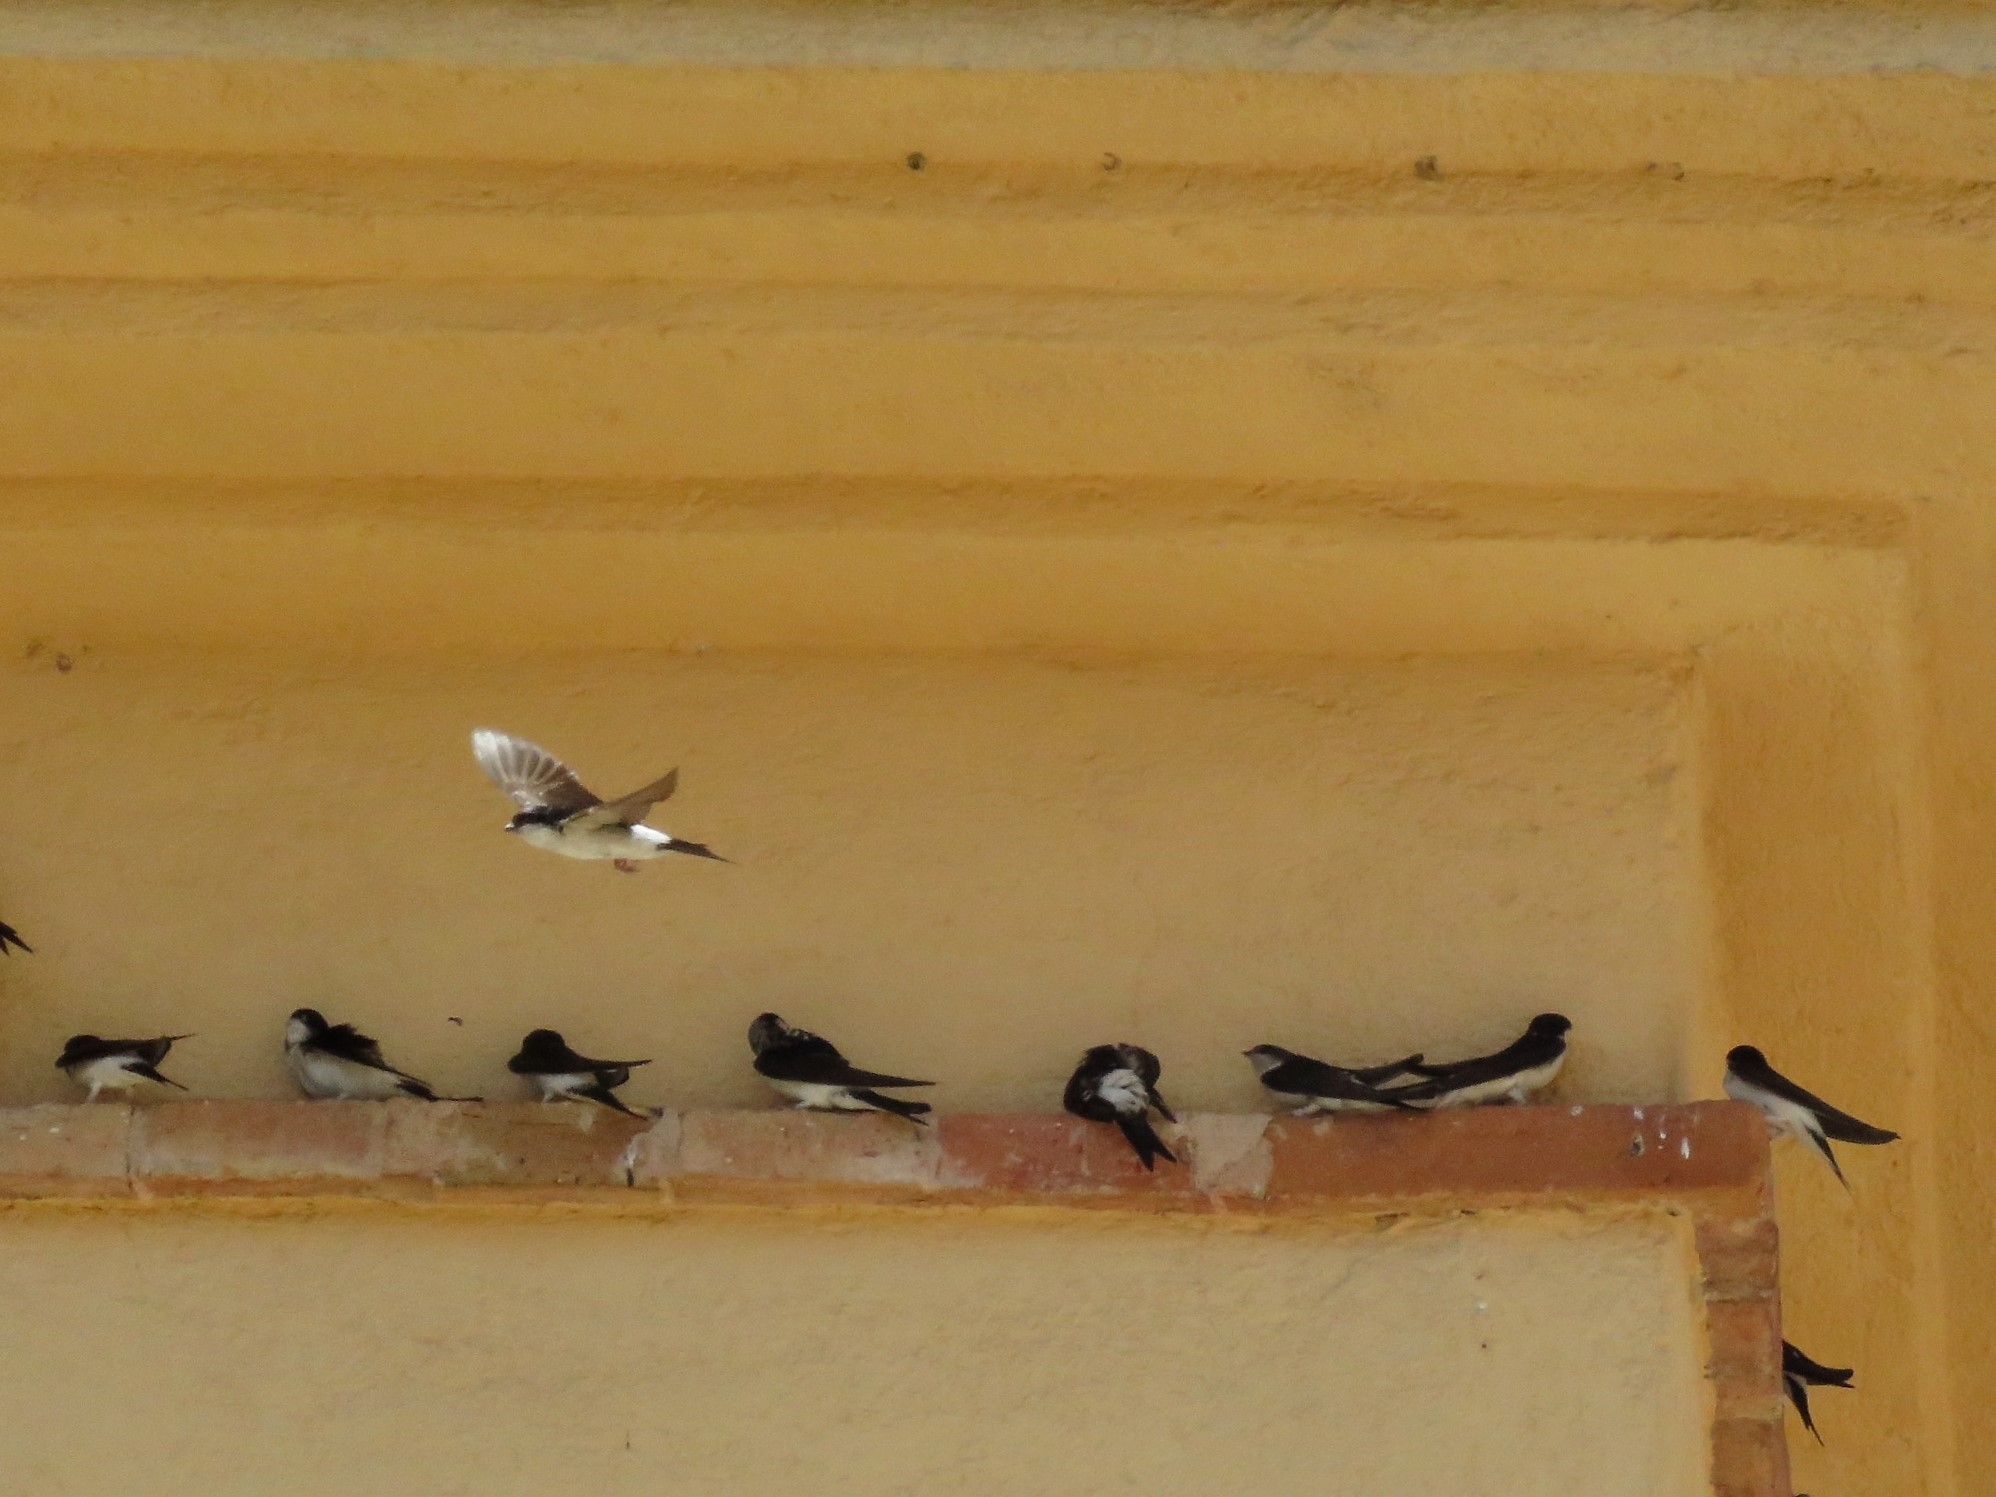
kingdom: Animalia
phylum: Chordata
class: Aves
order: Passeriformes
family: Hirundinidae
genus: Delichon
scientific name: Delichon urbicum
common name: Common house martin
